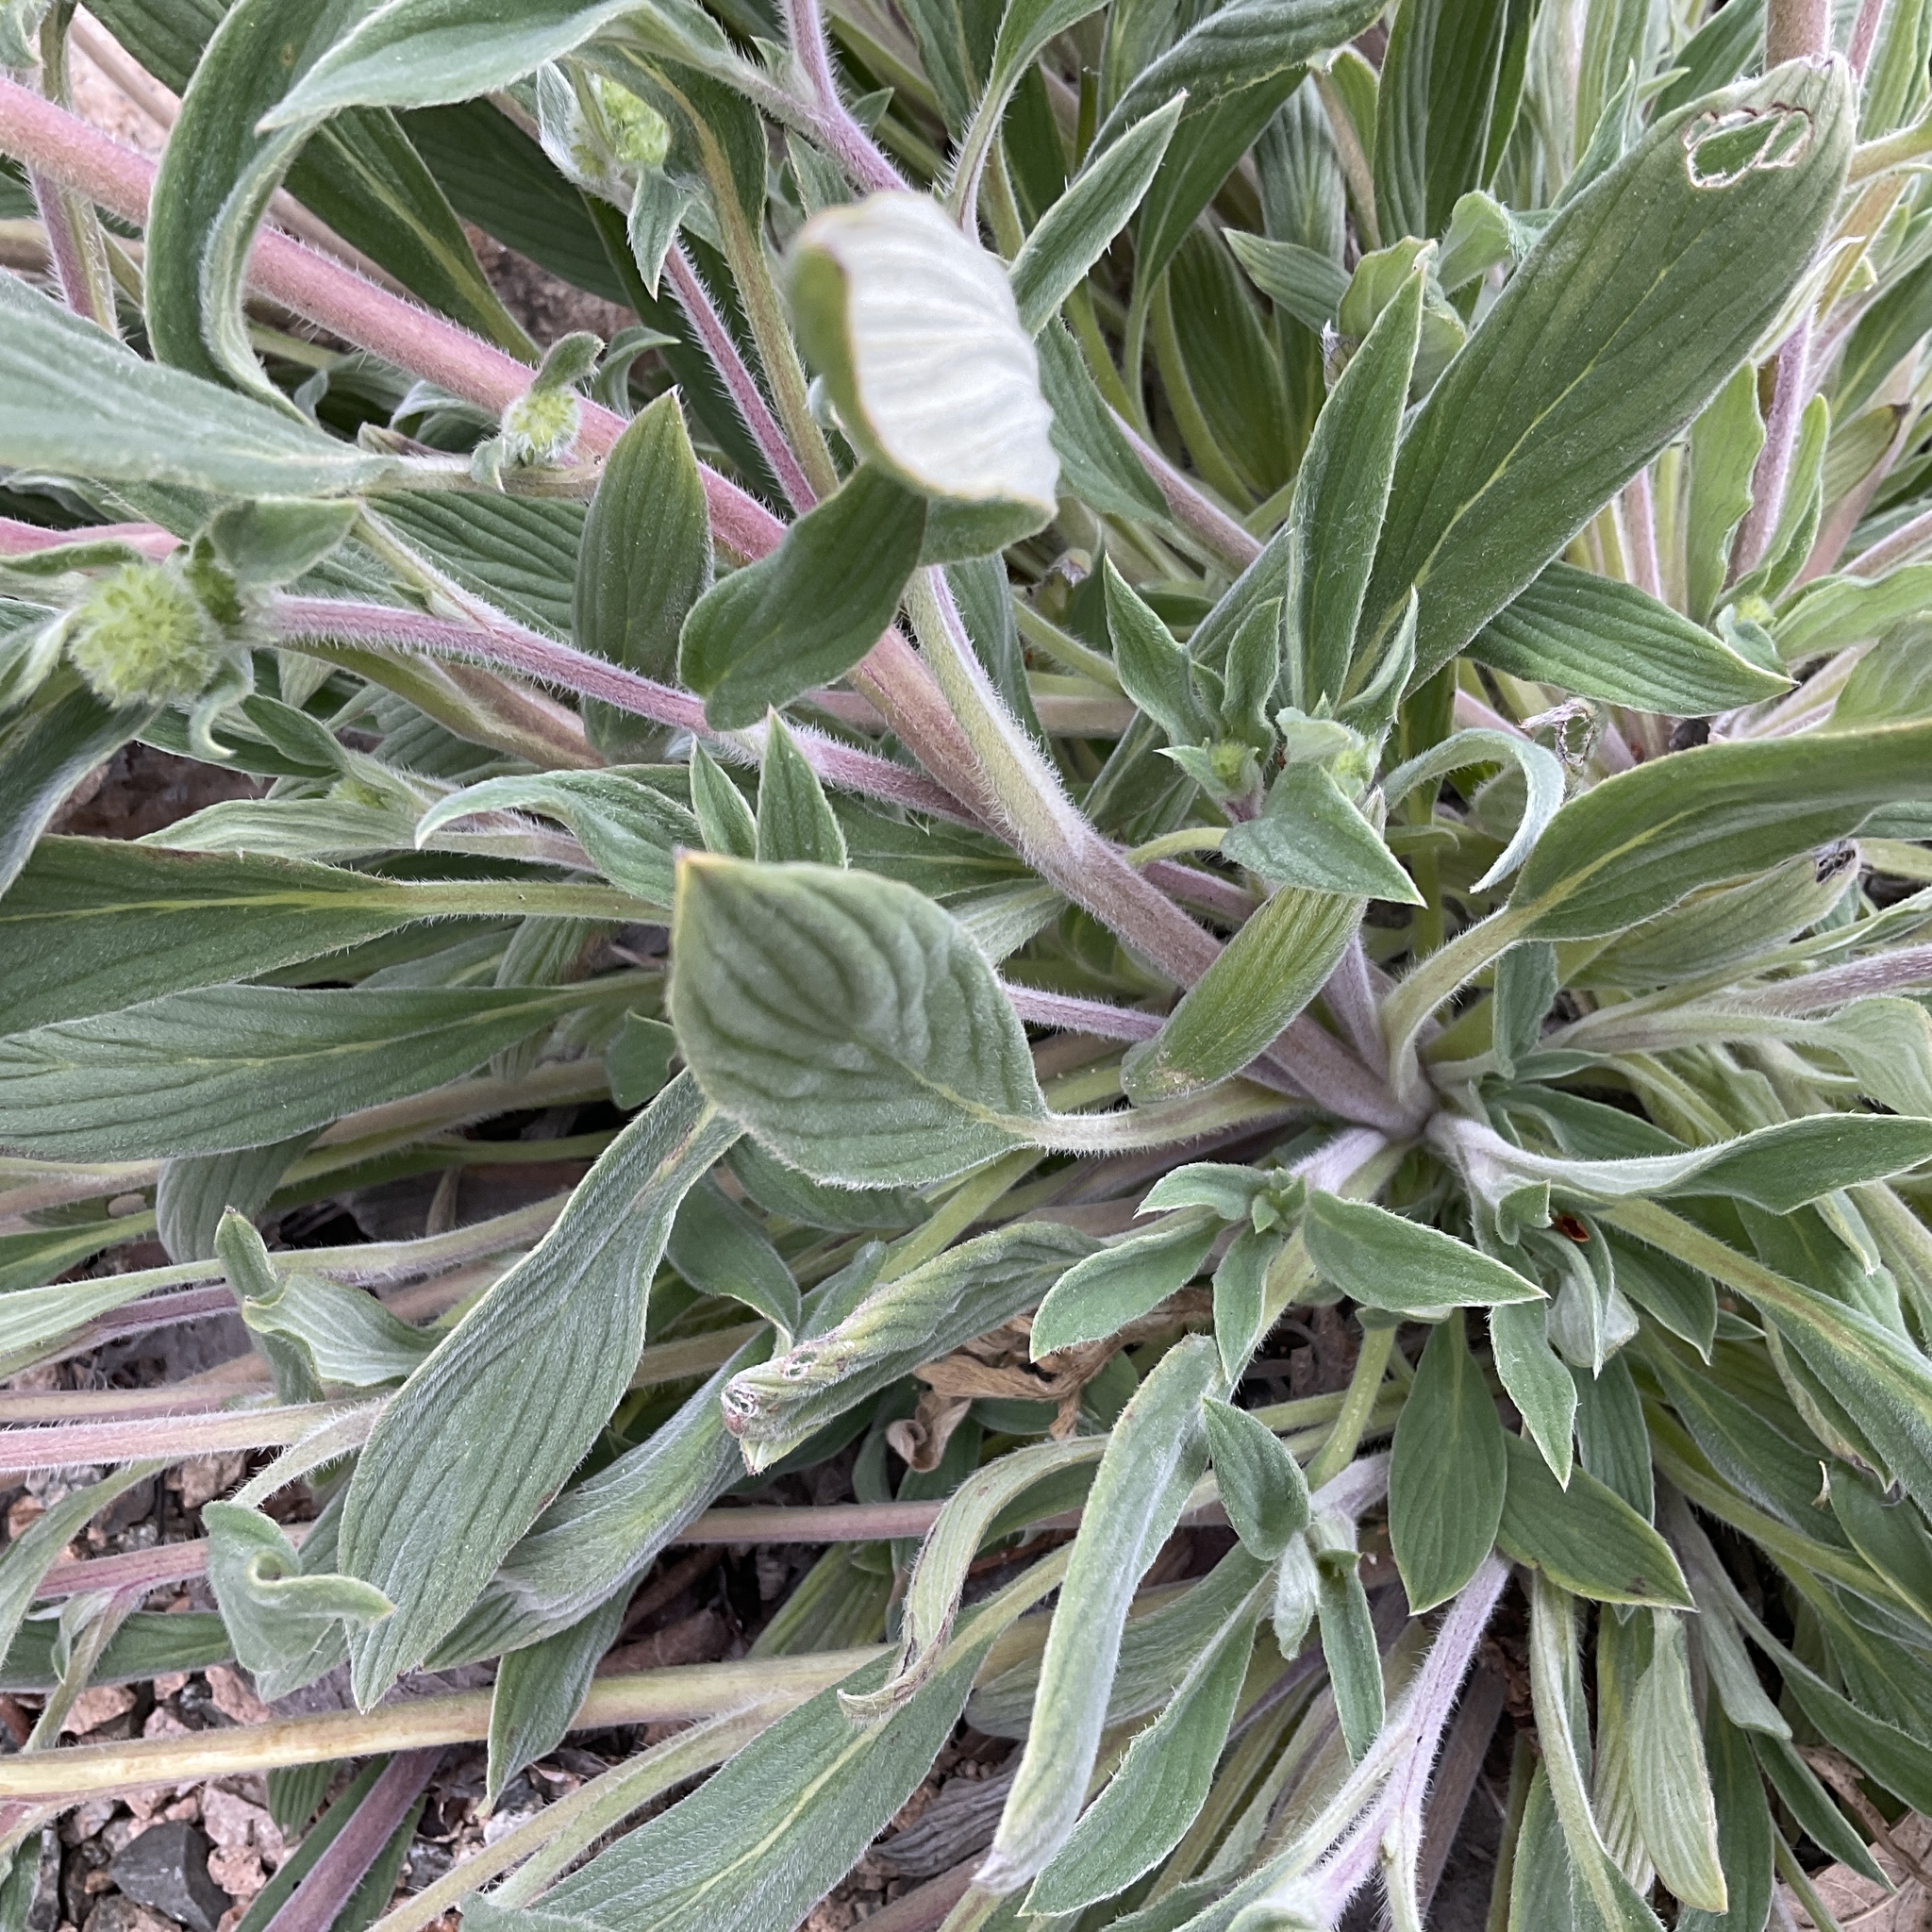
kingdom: Plantae
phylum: Tracheophyta
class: Magnoliopsida
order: Boraginales
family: Hydrophyllaceae
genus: Phacelia
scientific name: Phacelia hastata
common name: Silver-leaved phacelia
